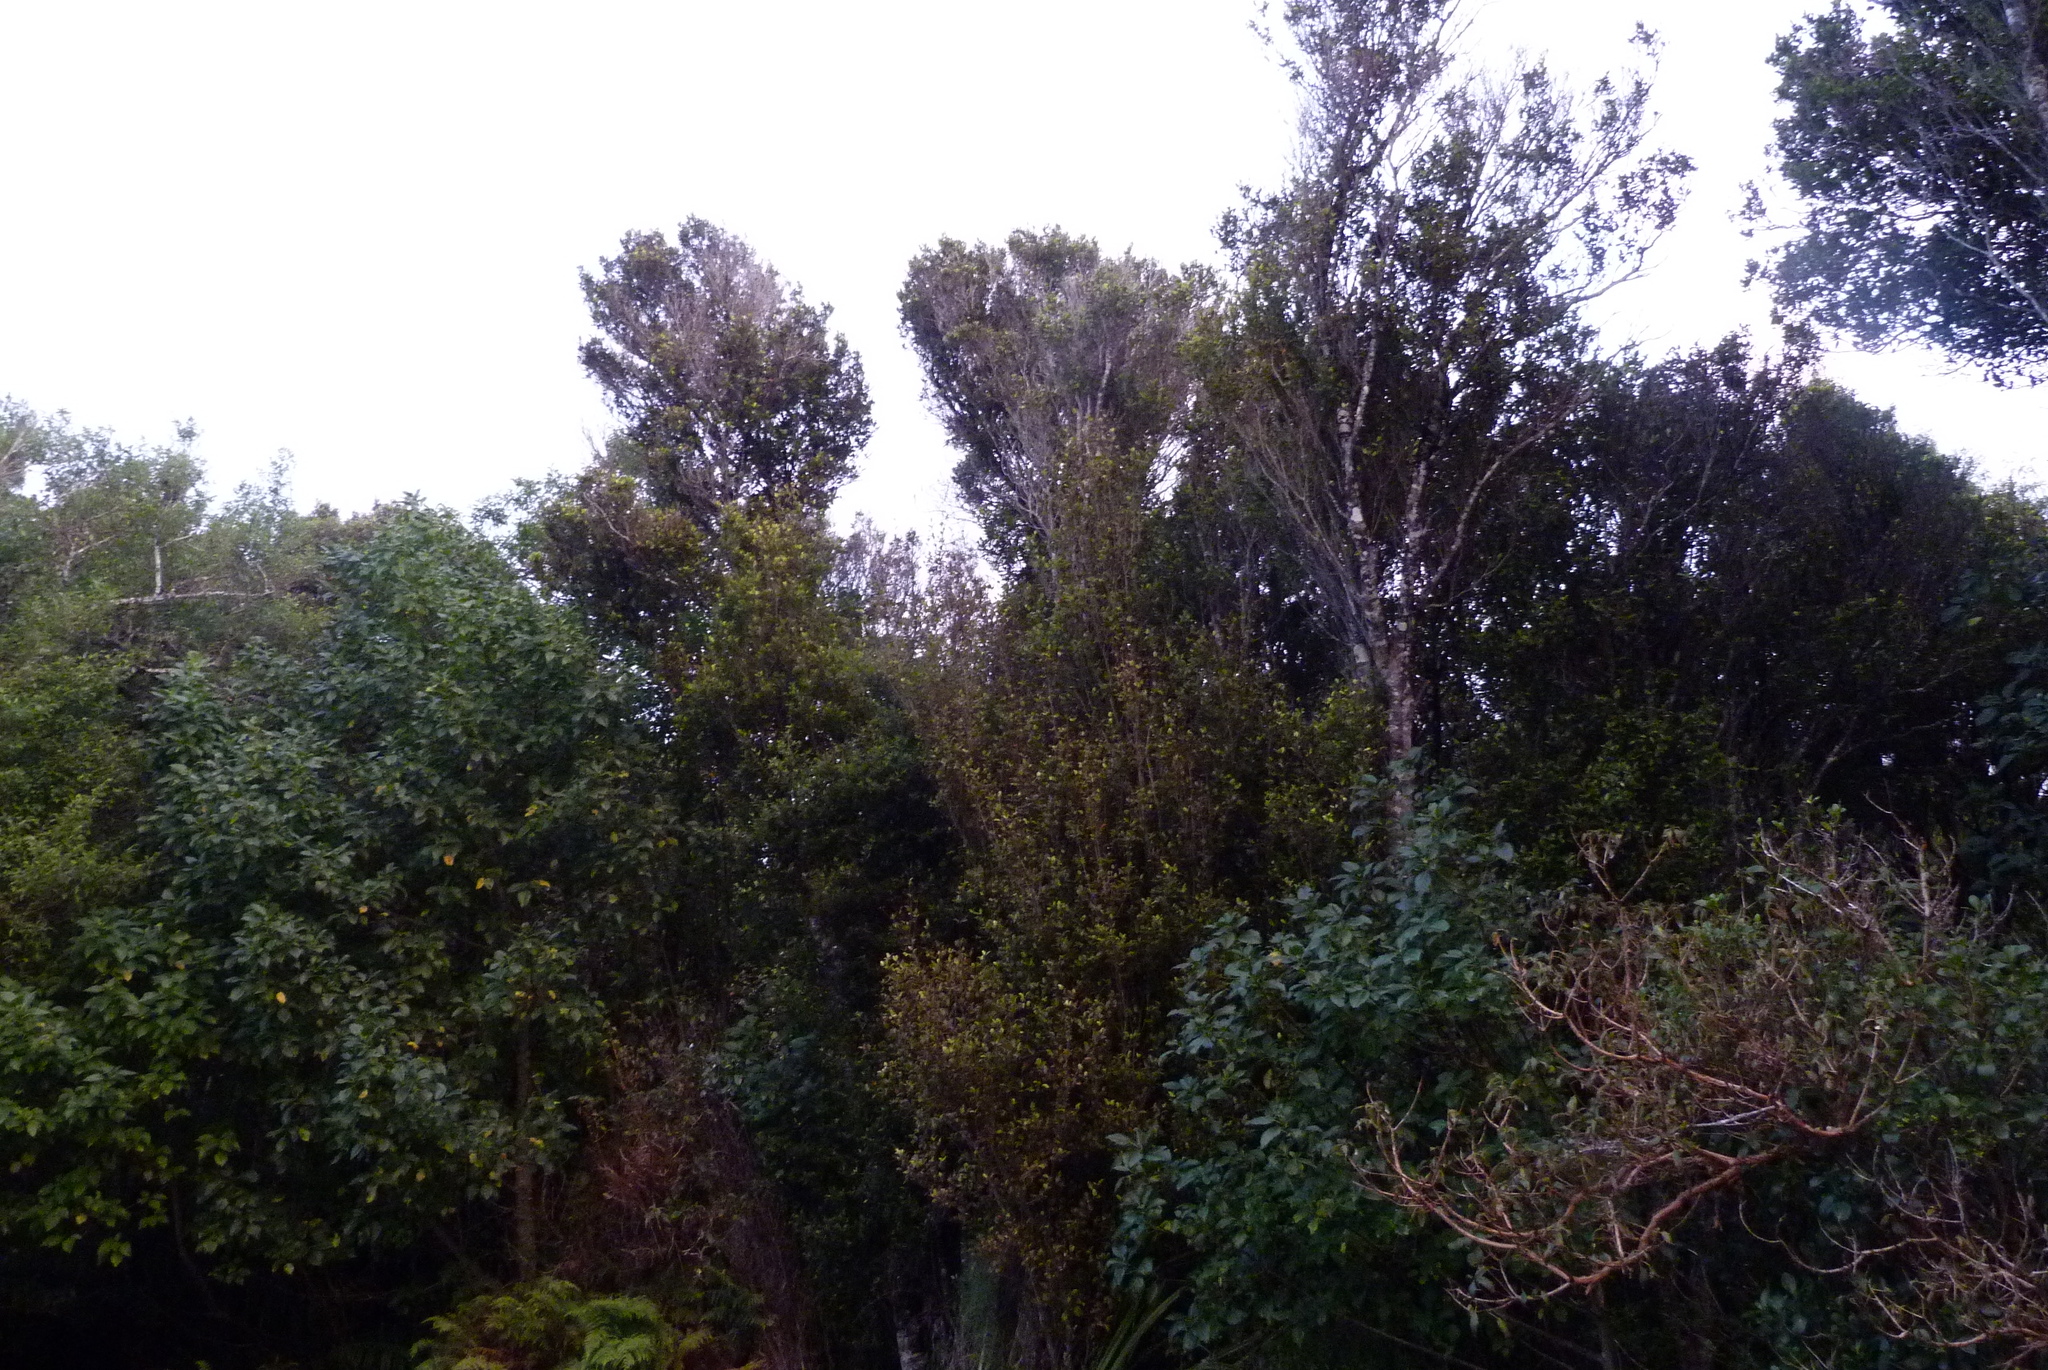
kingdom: Plantae
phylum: Tracheophyta
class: Magnoliopsida
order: Oxalidales
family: Cunoniaceae
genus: Pterophylla
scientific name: Pterophylla racemosa
